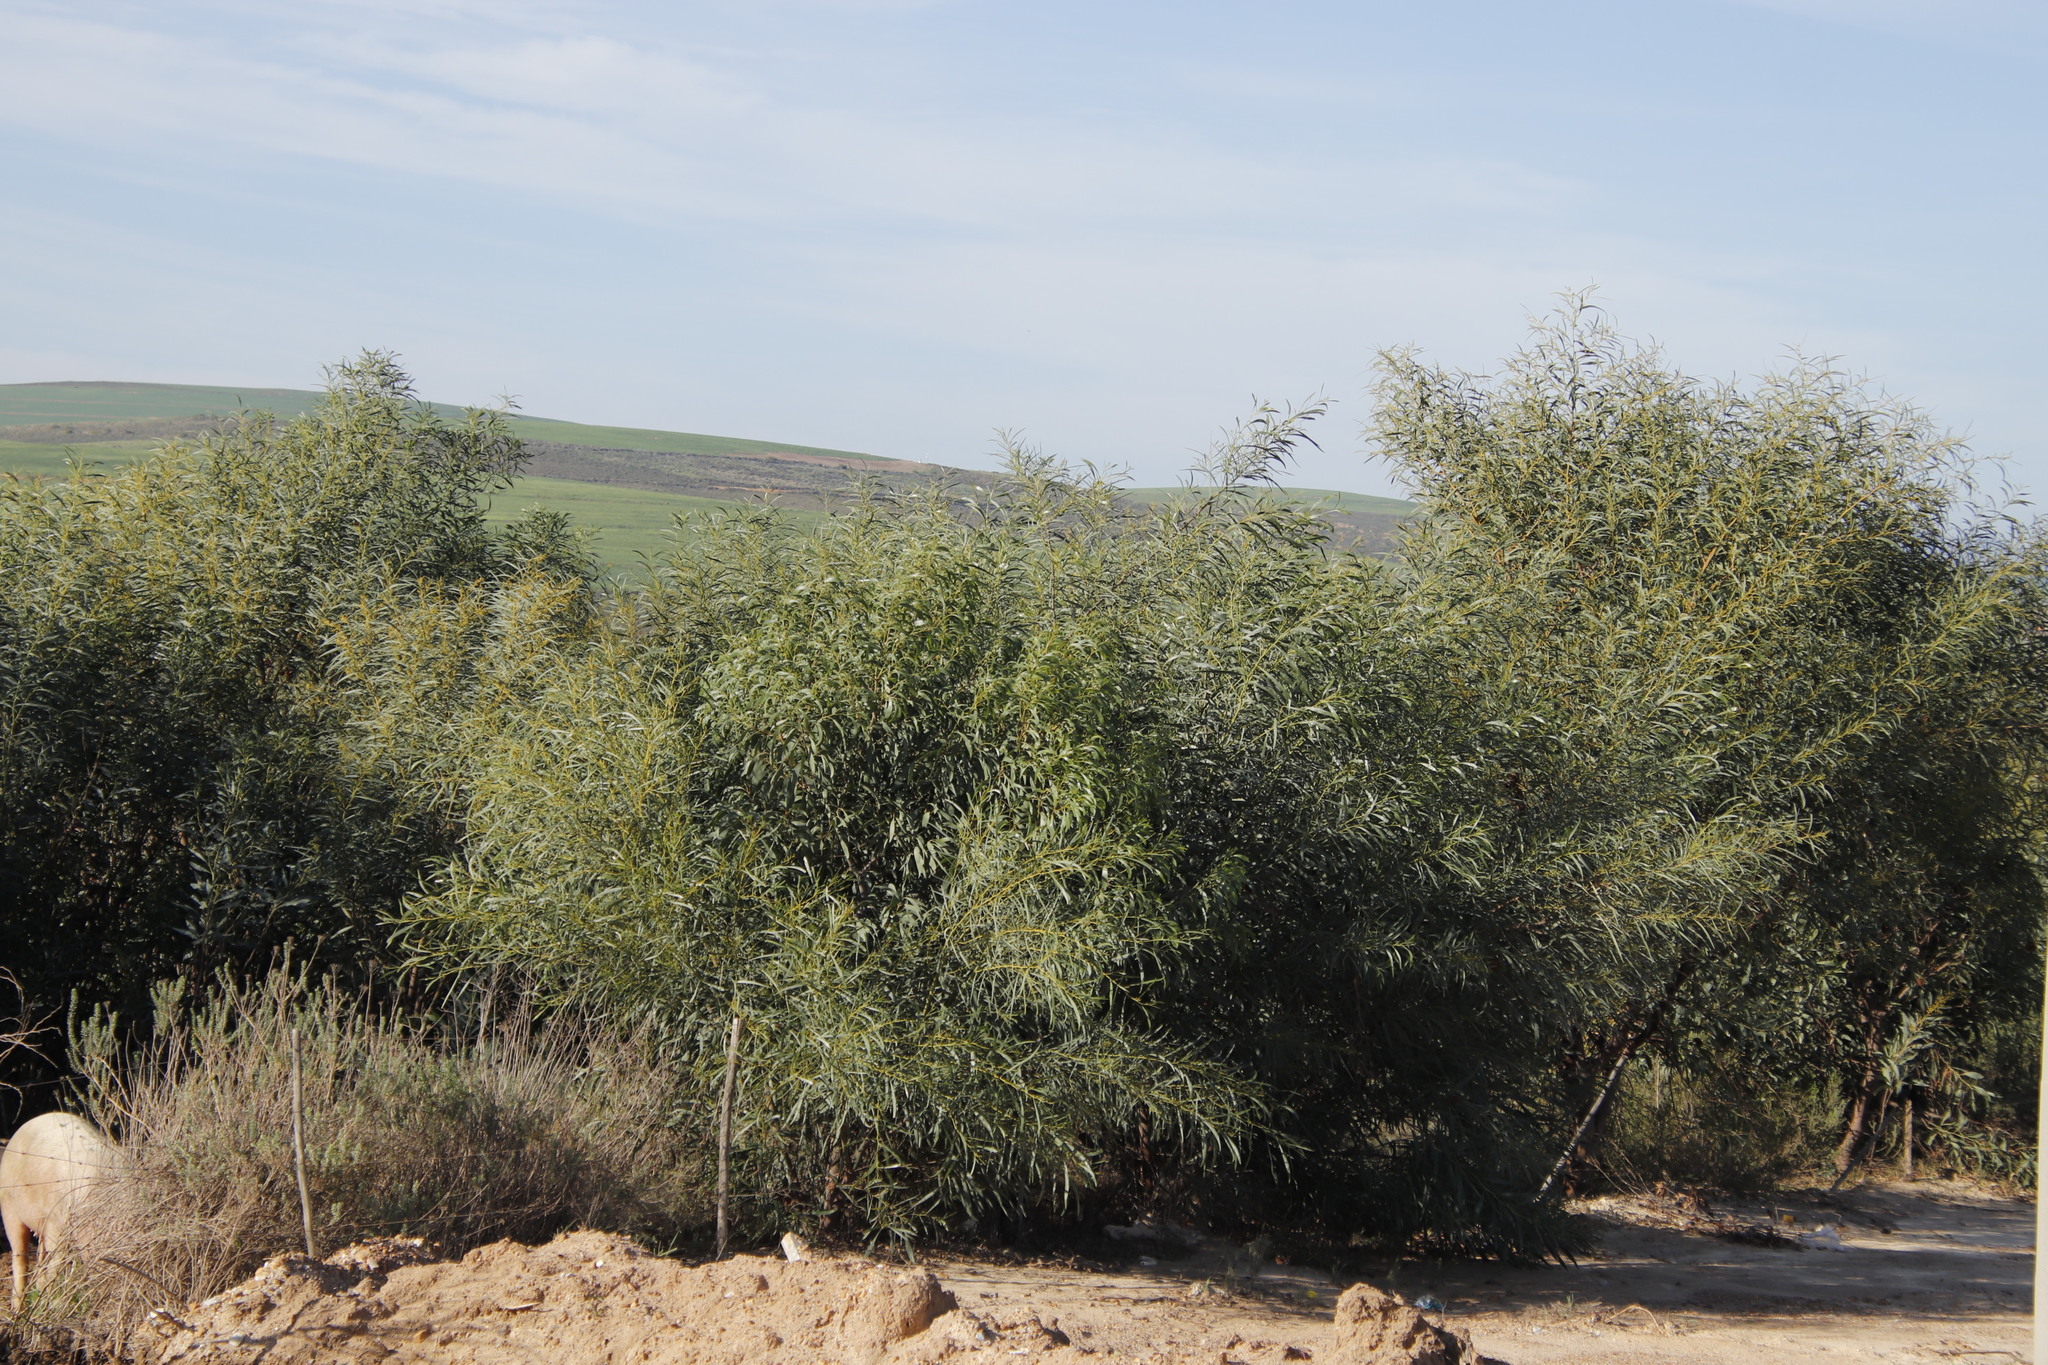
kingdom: Plantae
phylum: Tracheophyta
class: Magnoliopsida
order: Fabales
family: Fabaceae
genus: Acacia
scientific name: Acacia saligna
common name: Orange wattle
